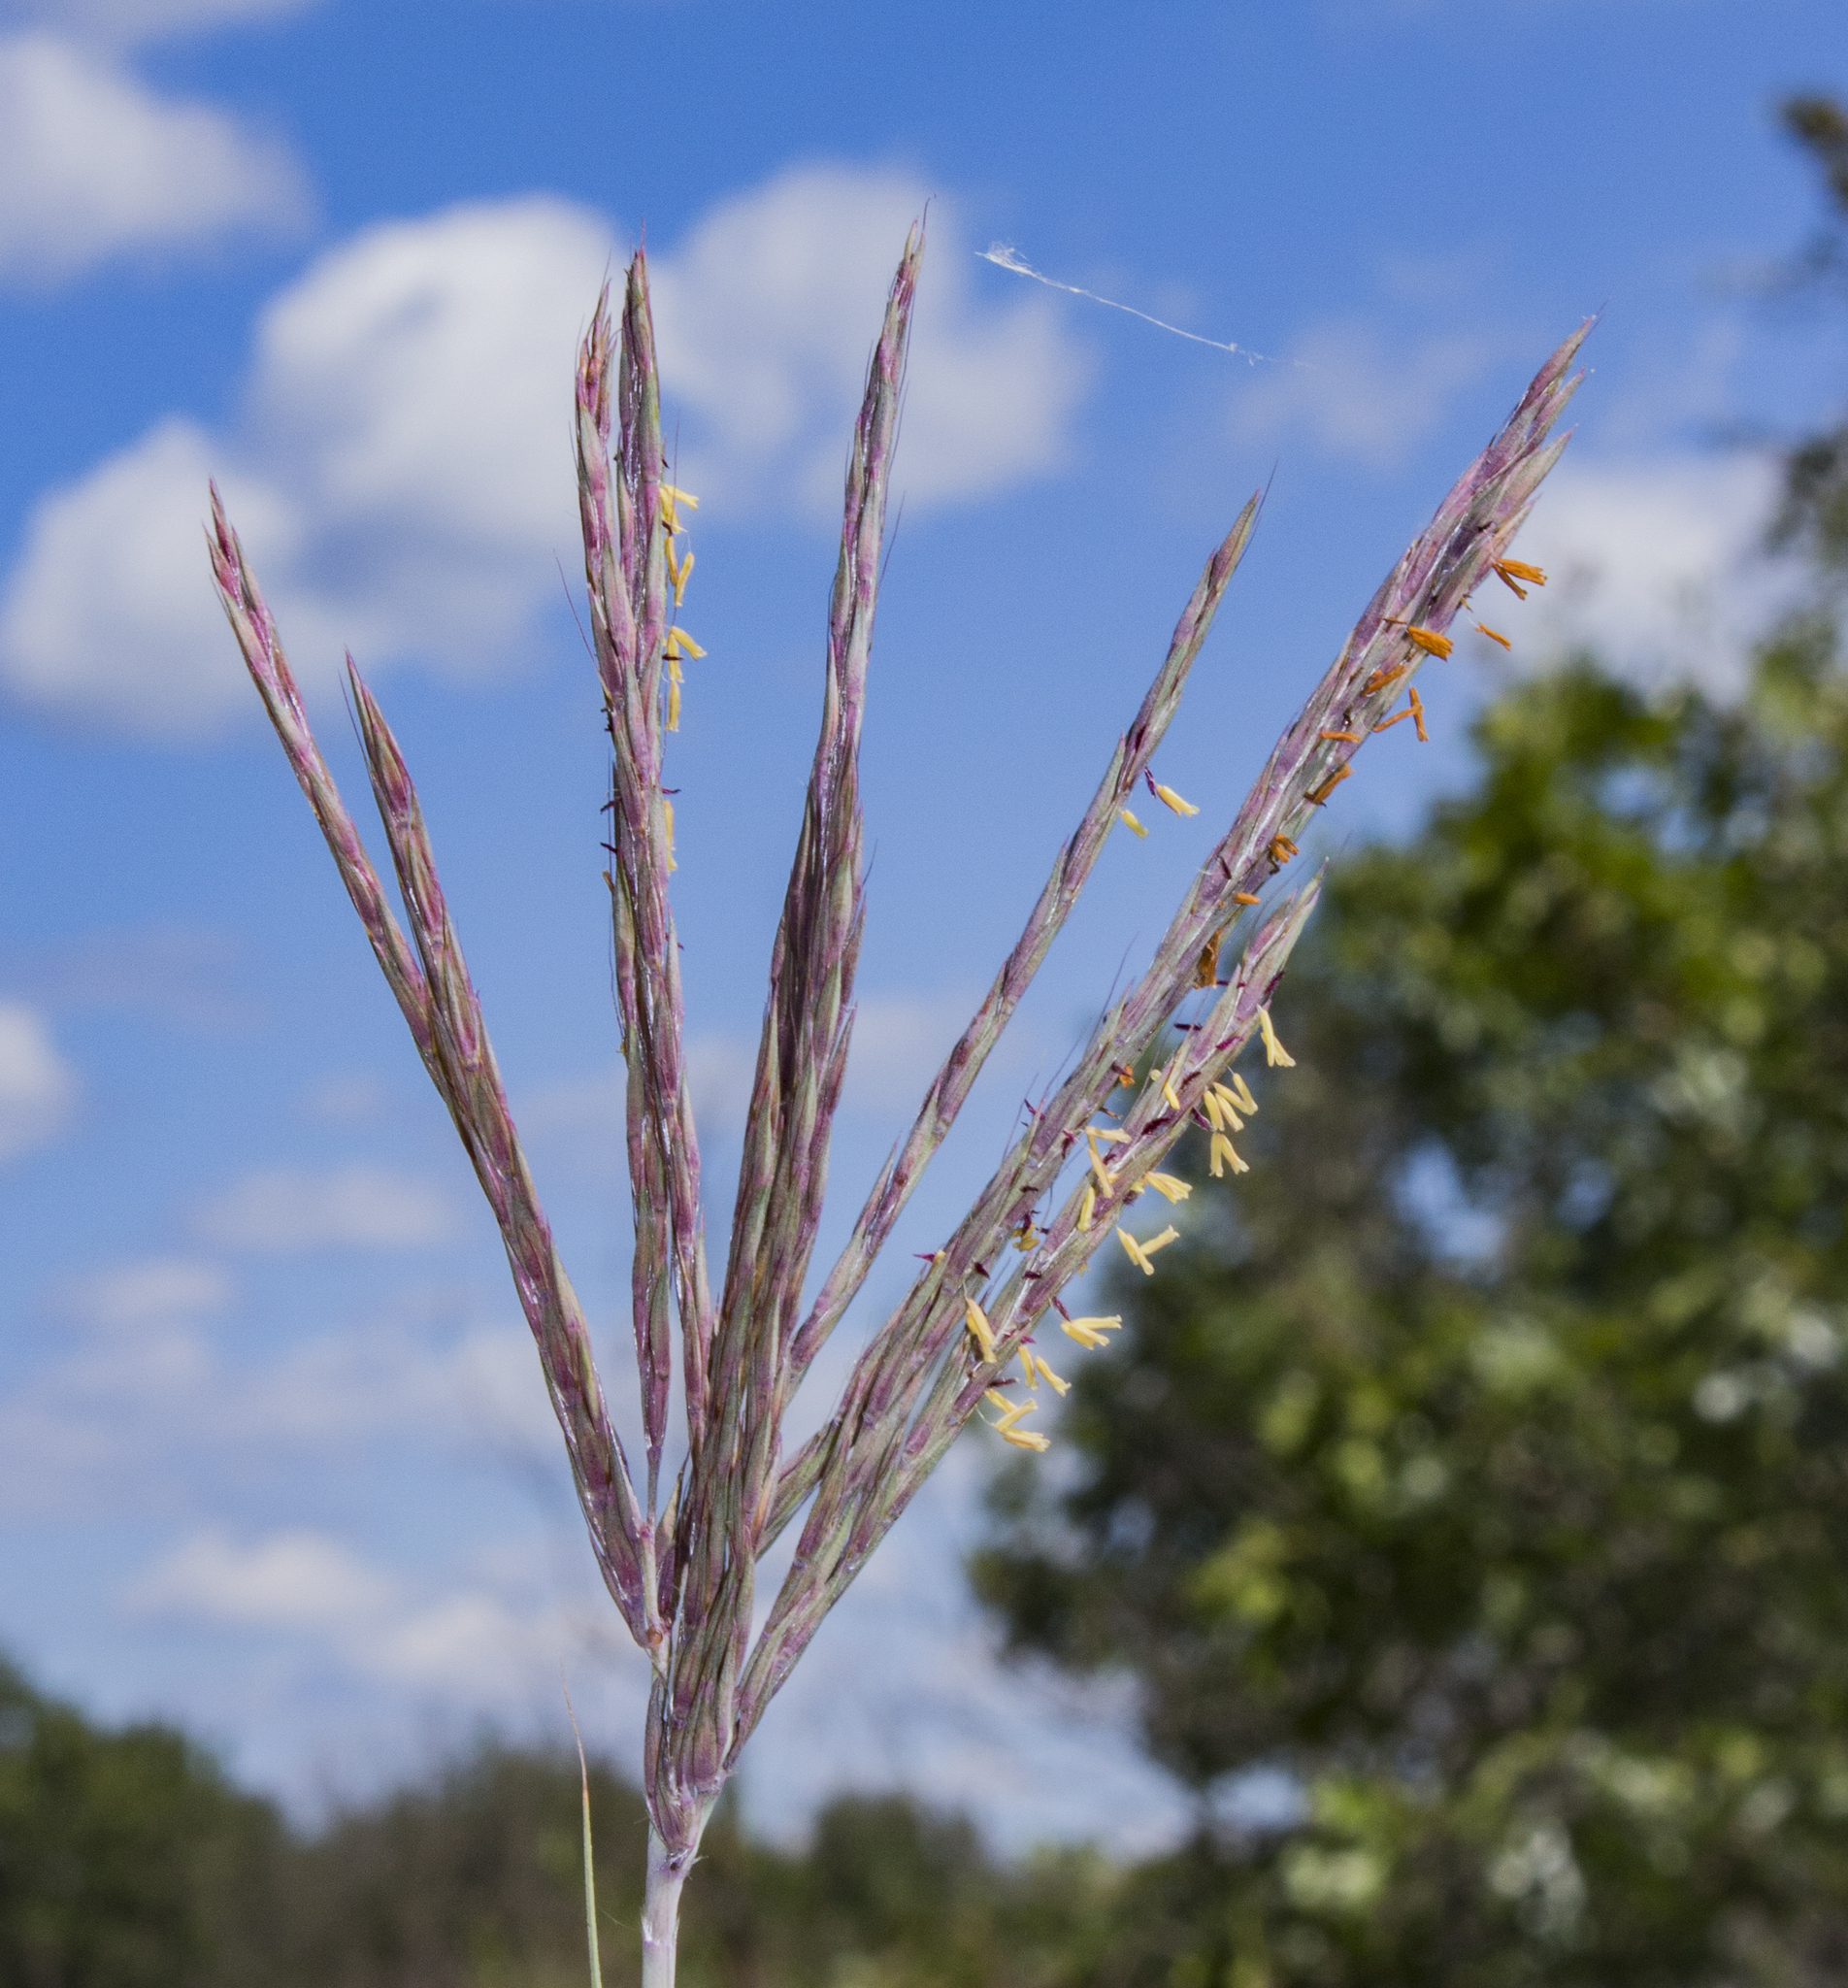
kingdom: Plantae
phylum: Tracheophyta
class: Liliopsida
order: Poales
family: Poaceae
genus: Andropogon
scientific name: Andropogon gerardi
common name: Big bluestem
